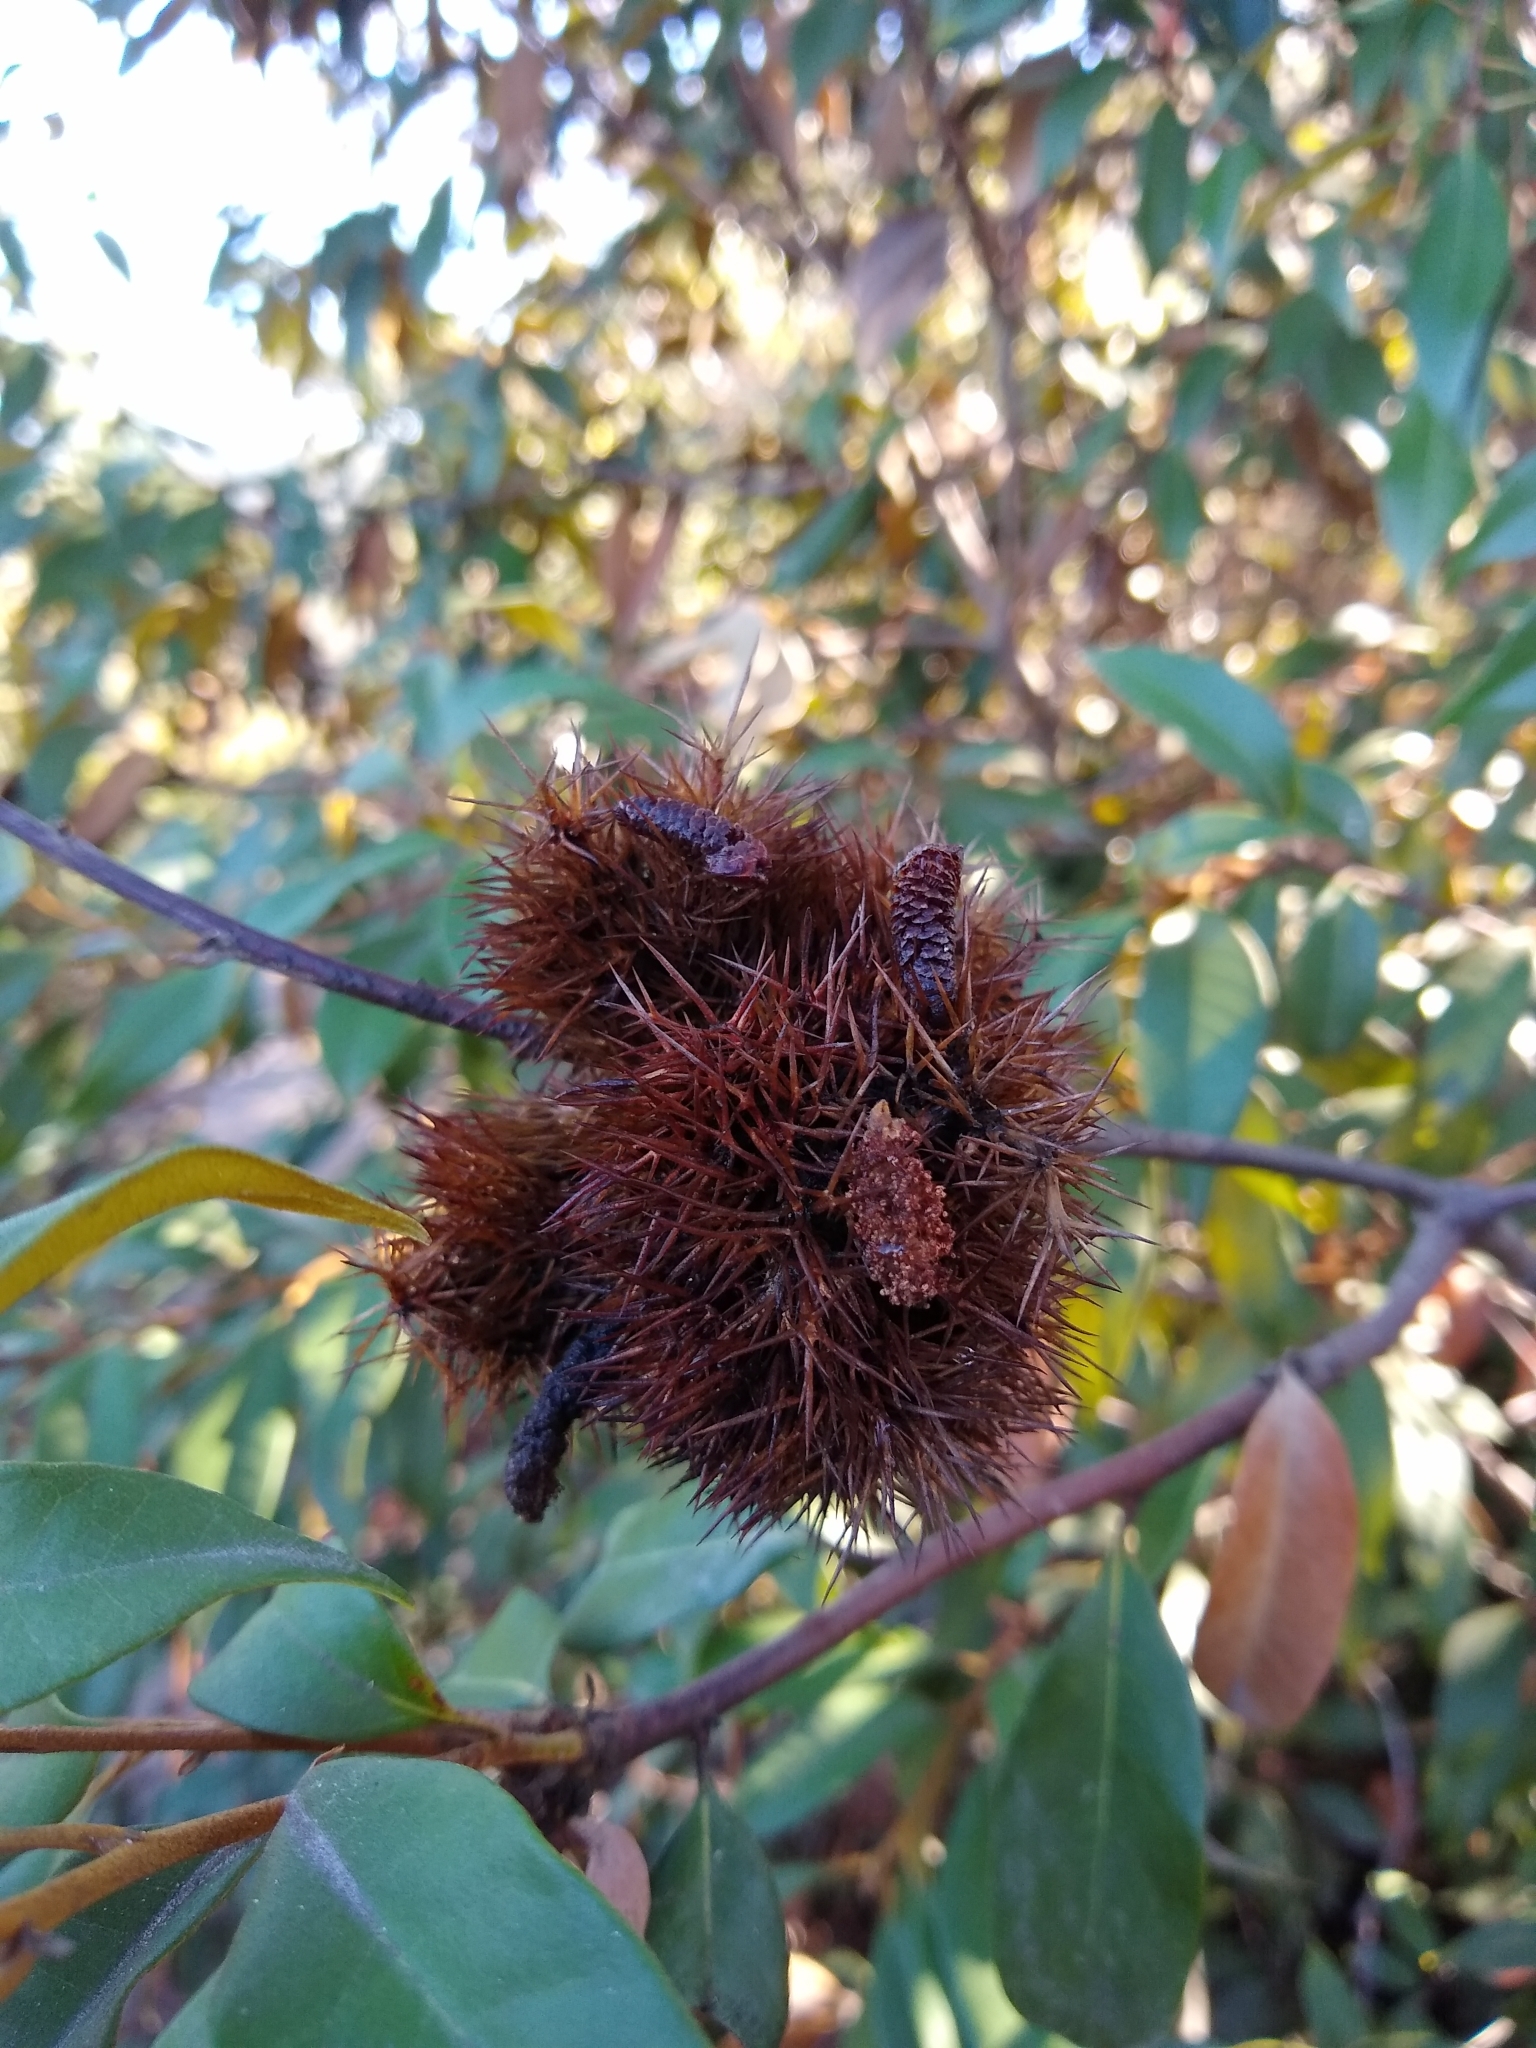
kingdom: Plantae
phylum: Tracheophyta
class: Magnoliopsida
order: Fagales
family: Fagaceae
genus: Chrysolepis
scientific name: Chrysolepis chrysophylla
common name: Giant chinquapin
